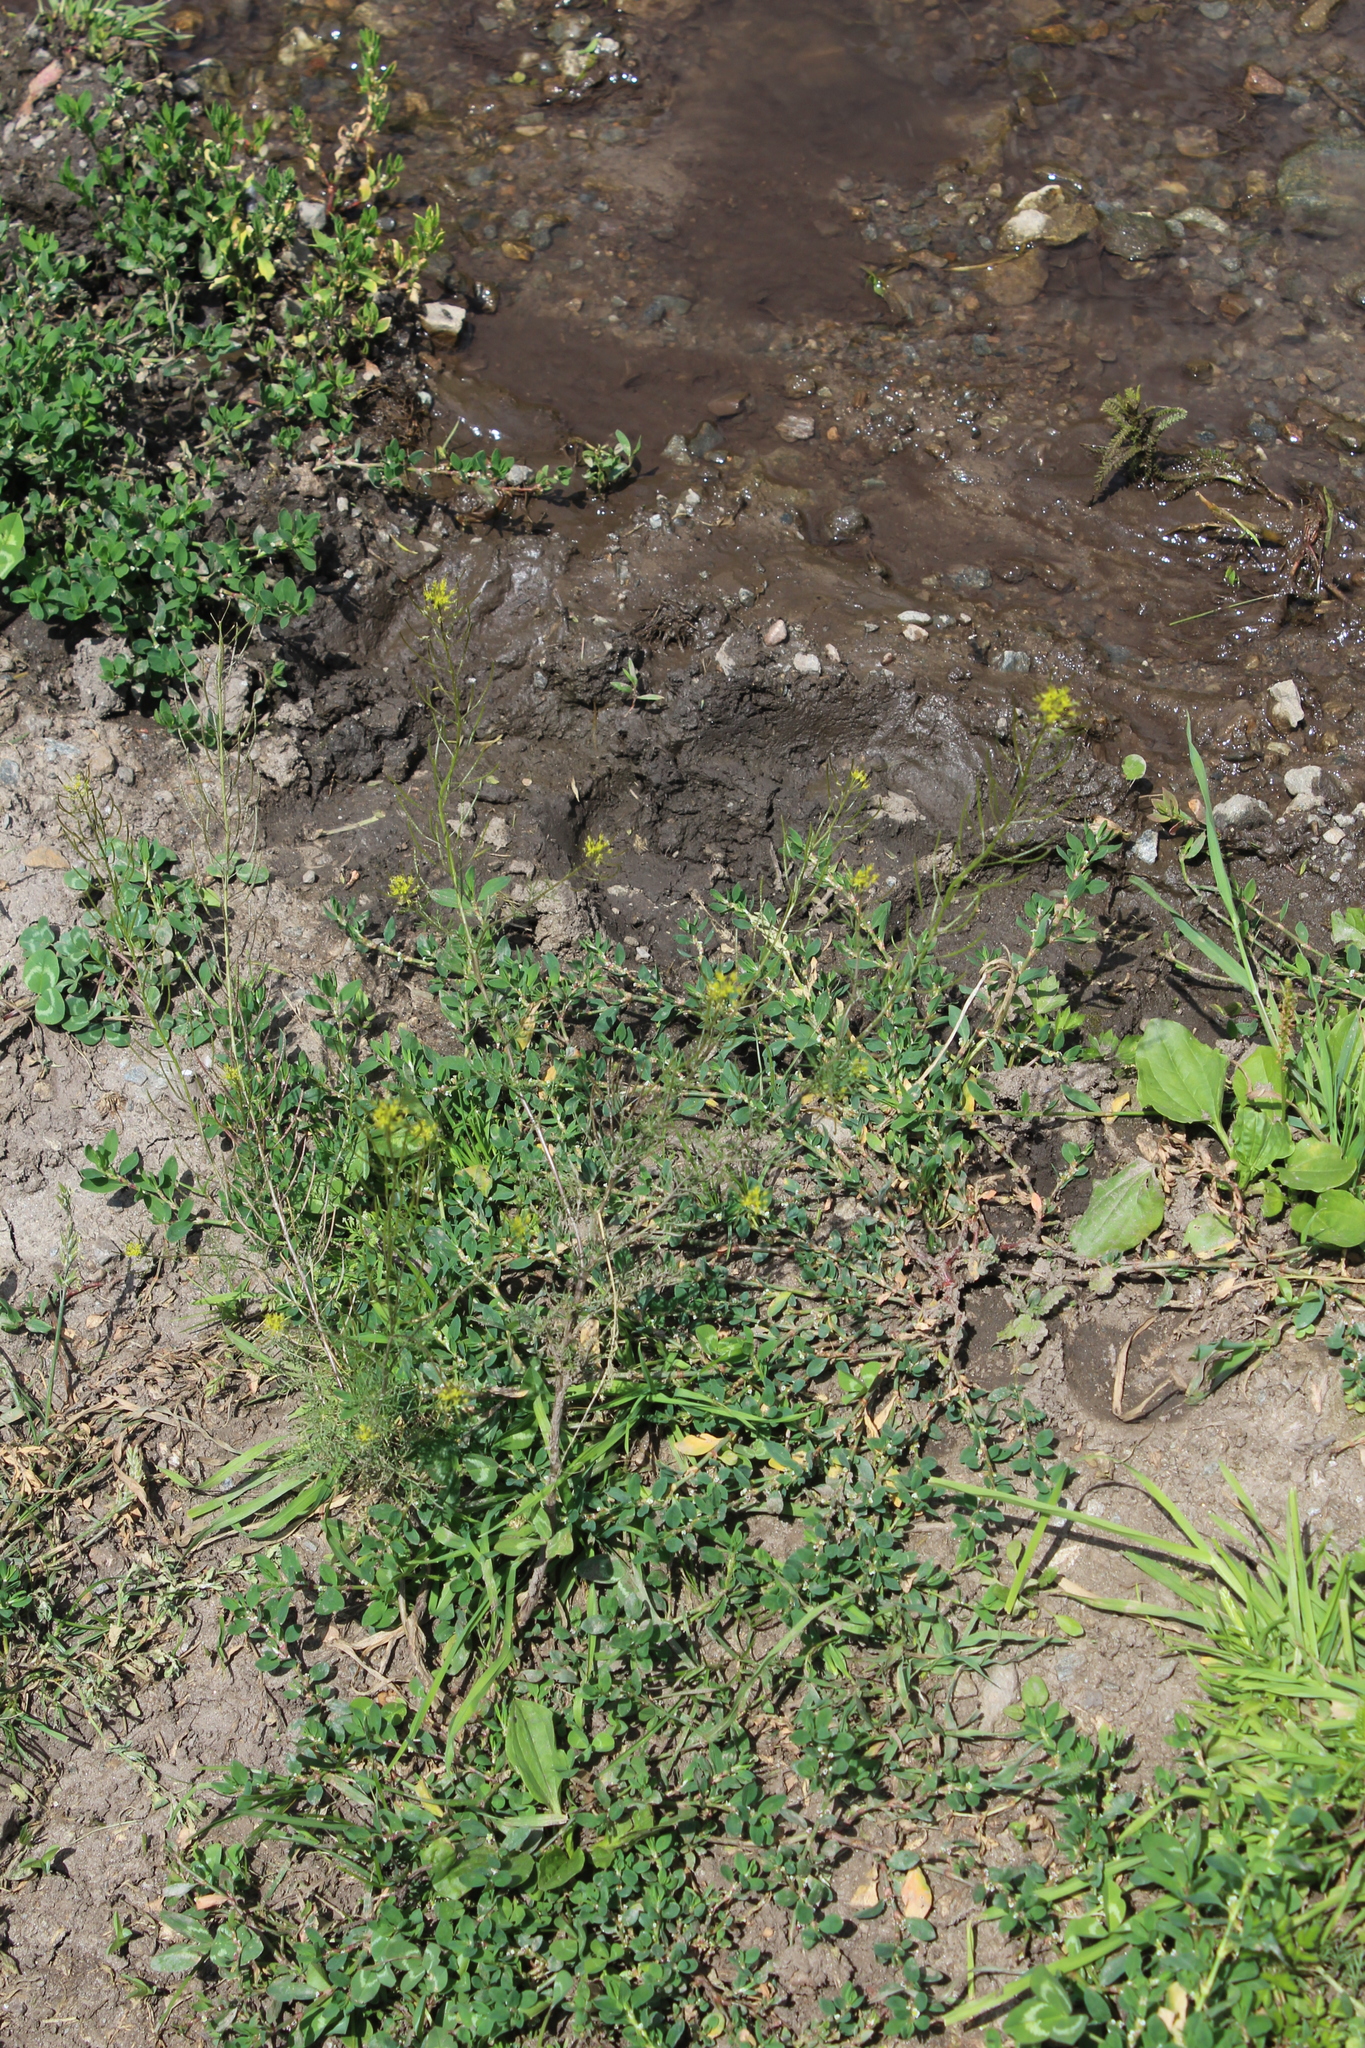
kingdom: Plantae
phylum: Tracheophyta
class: Magnoliopsida
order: Caryophyllales
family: Polygonaceae
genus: Polygonum
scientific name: Polygonum
